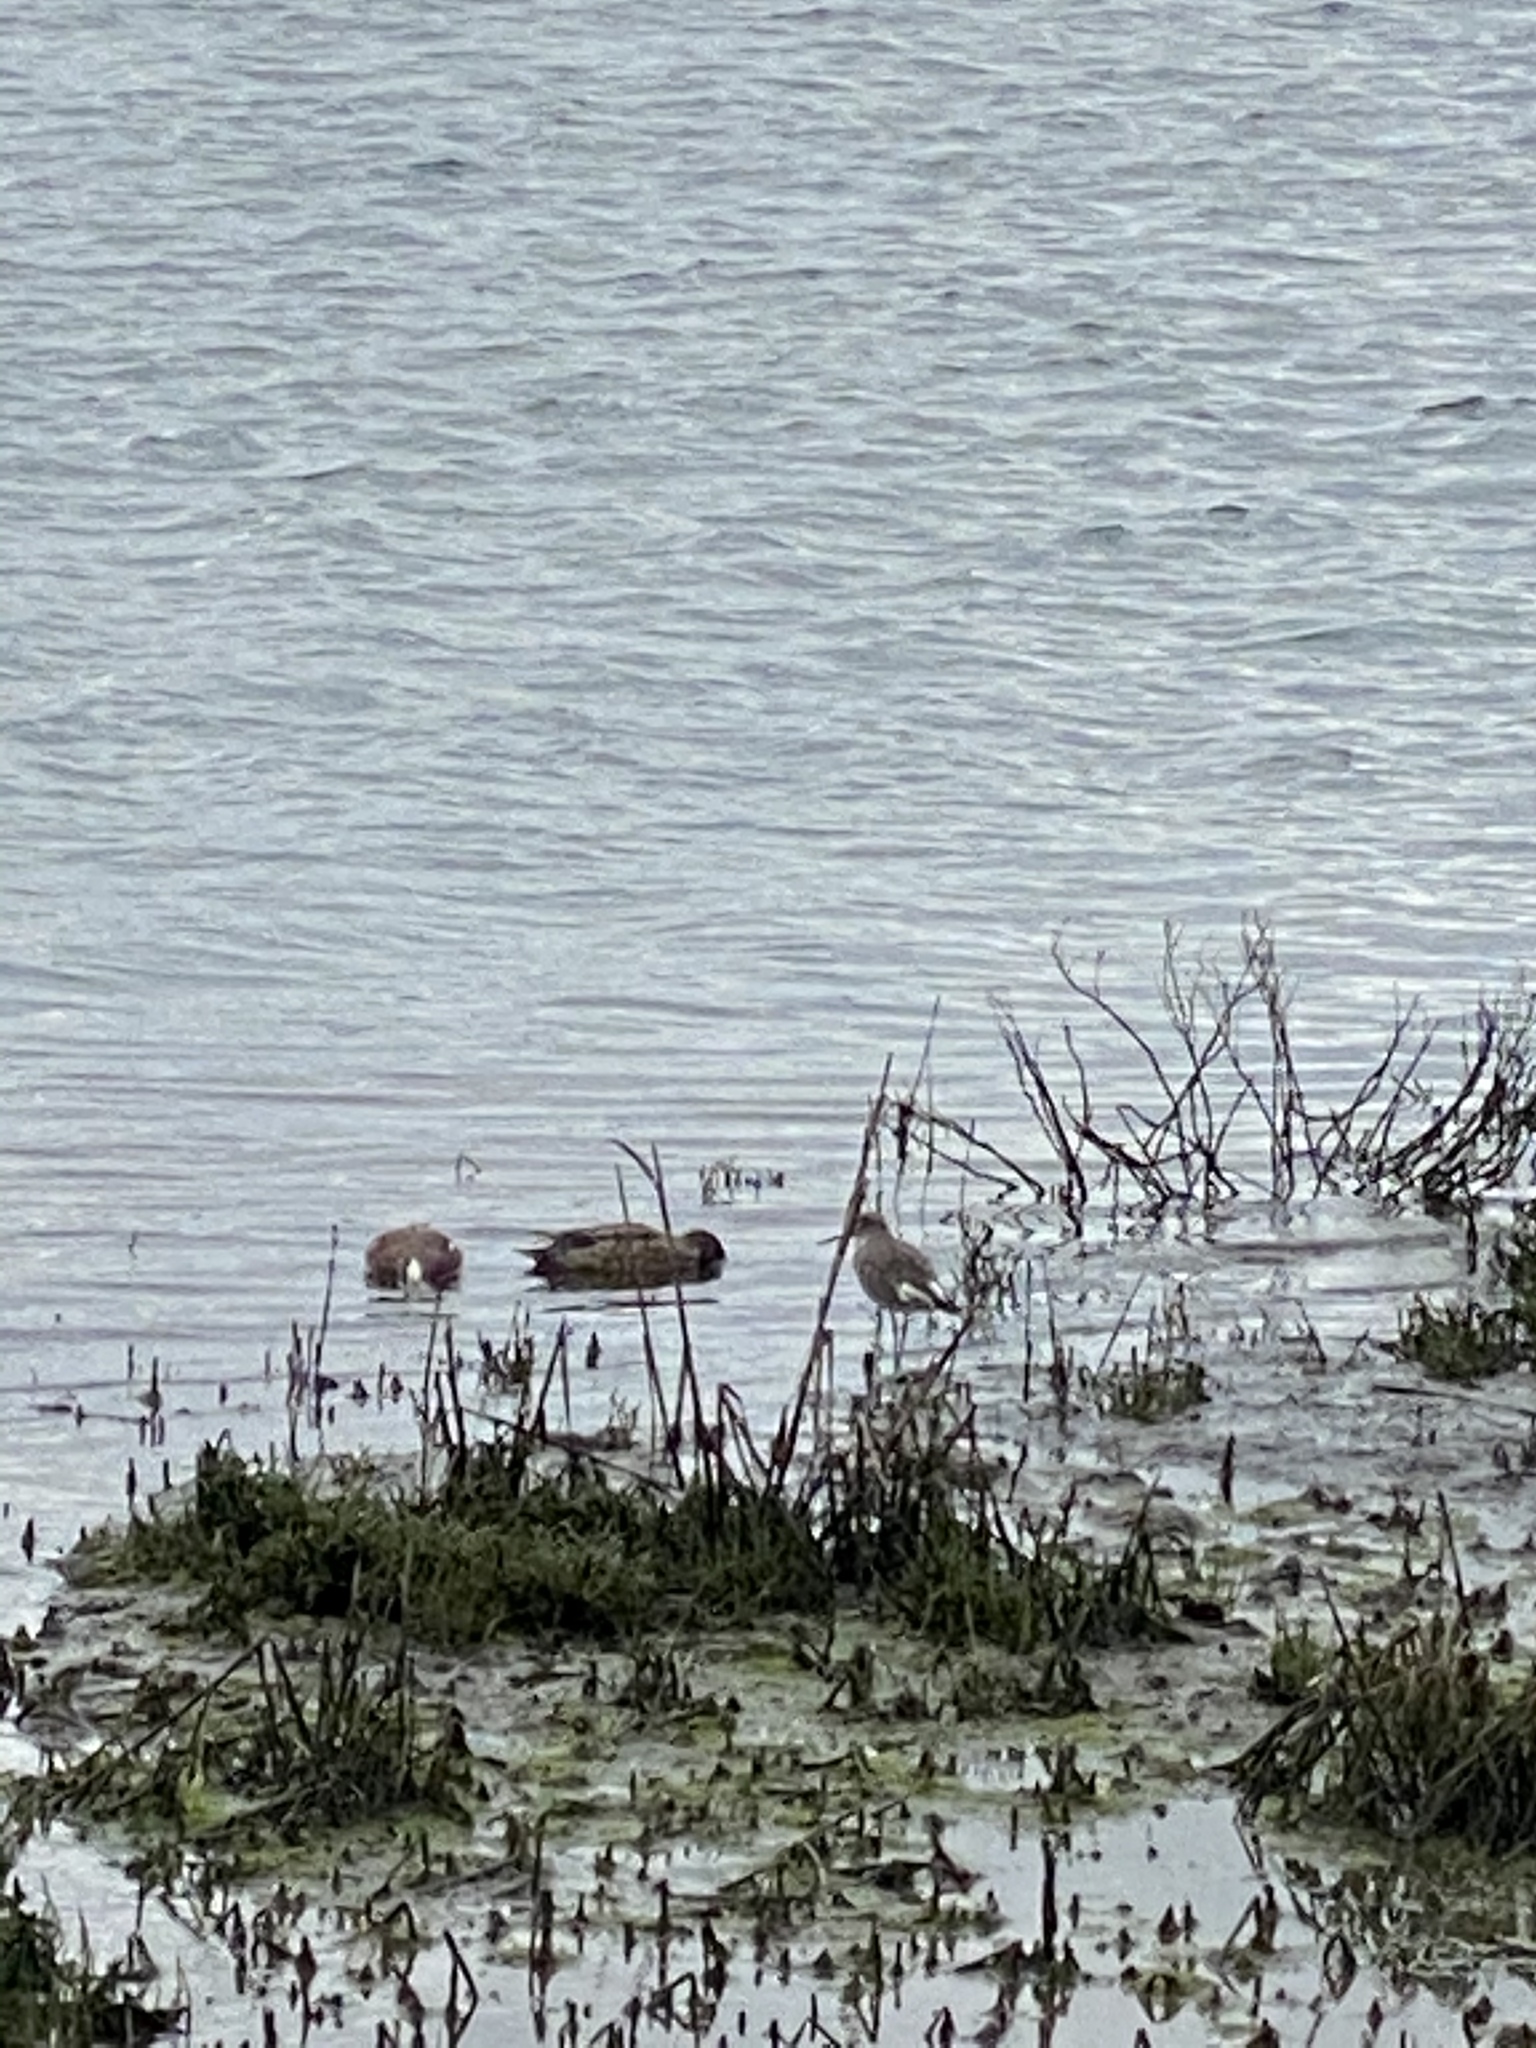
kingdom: Animalia
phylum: Chordata
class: Aves
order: Anseriformes
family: Anatidae
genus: Mareca
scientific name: Mareca americana
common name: American wigeon
